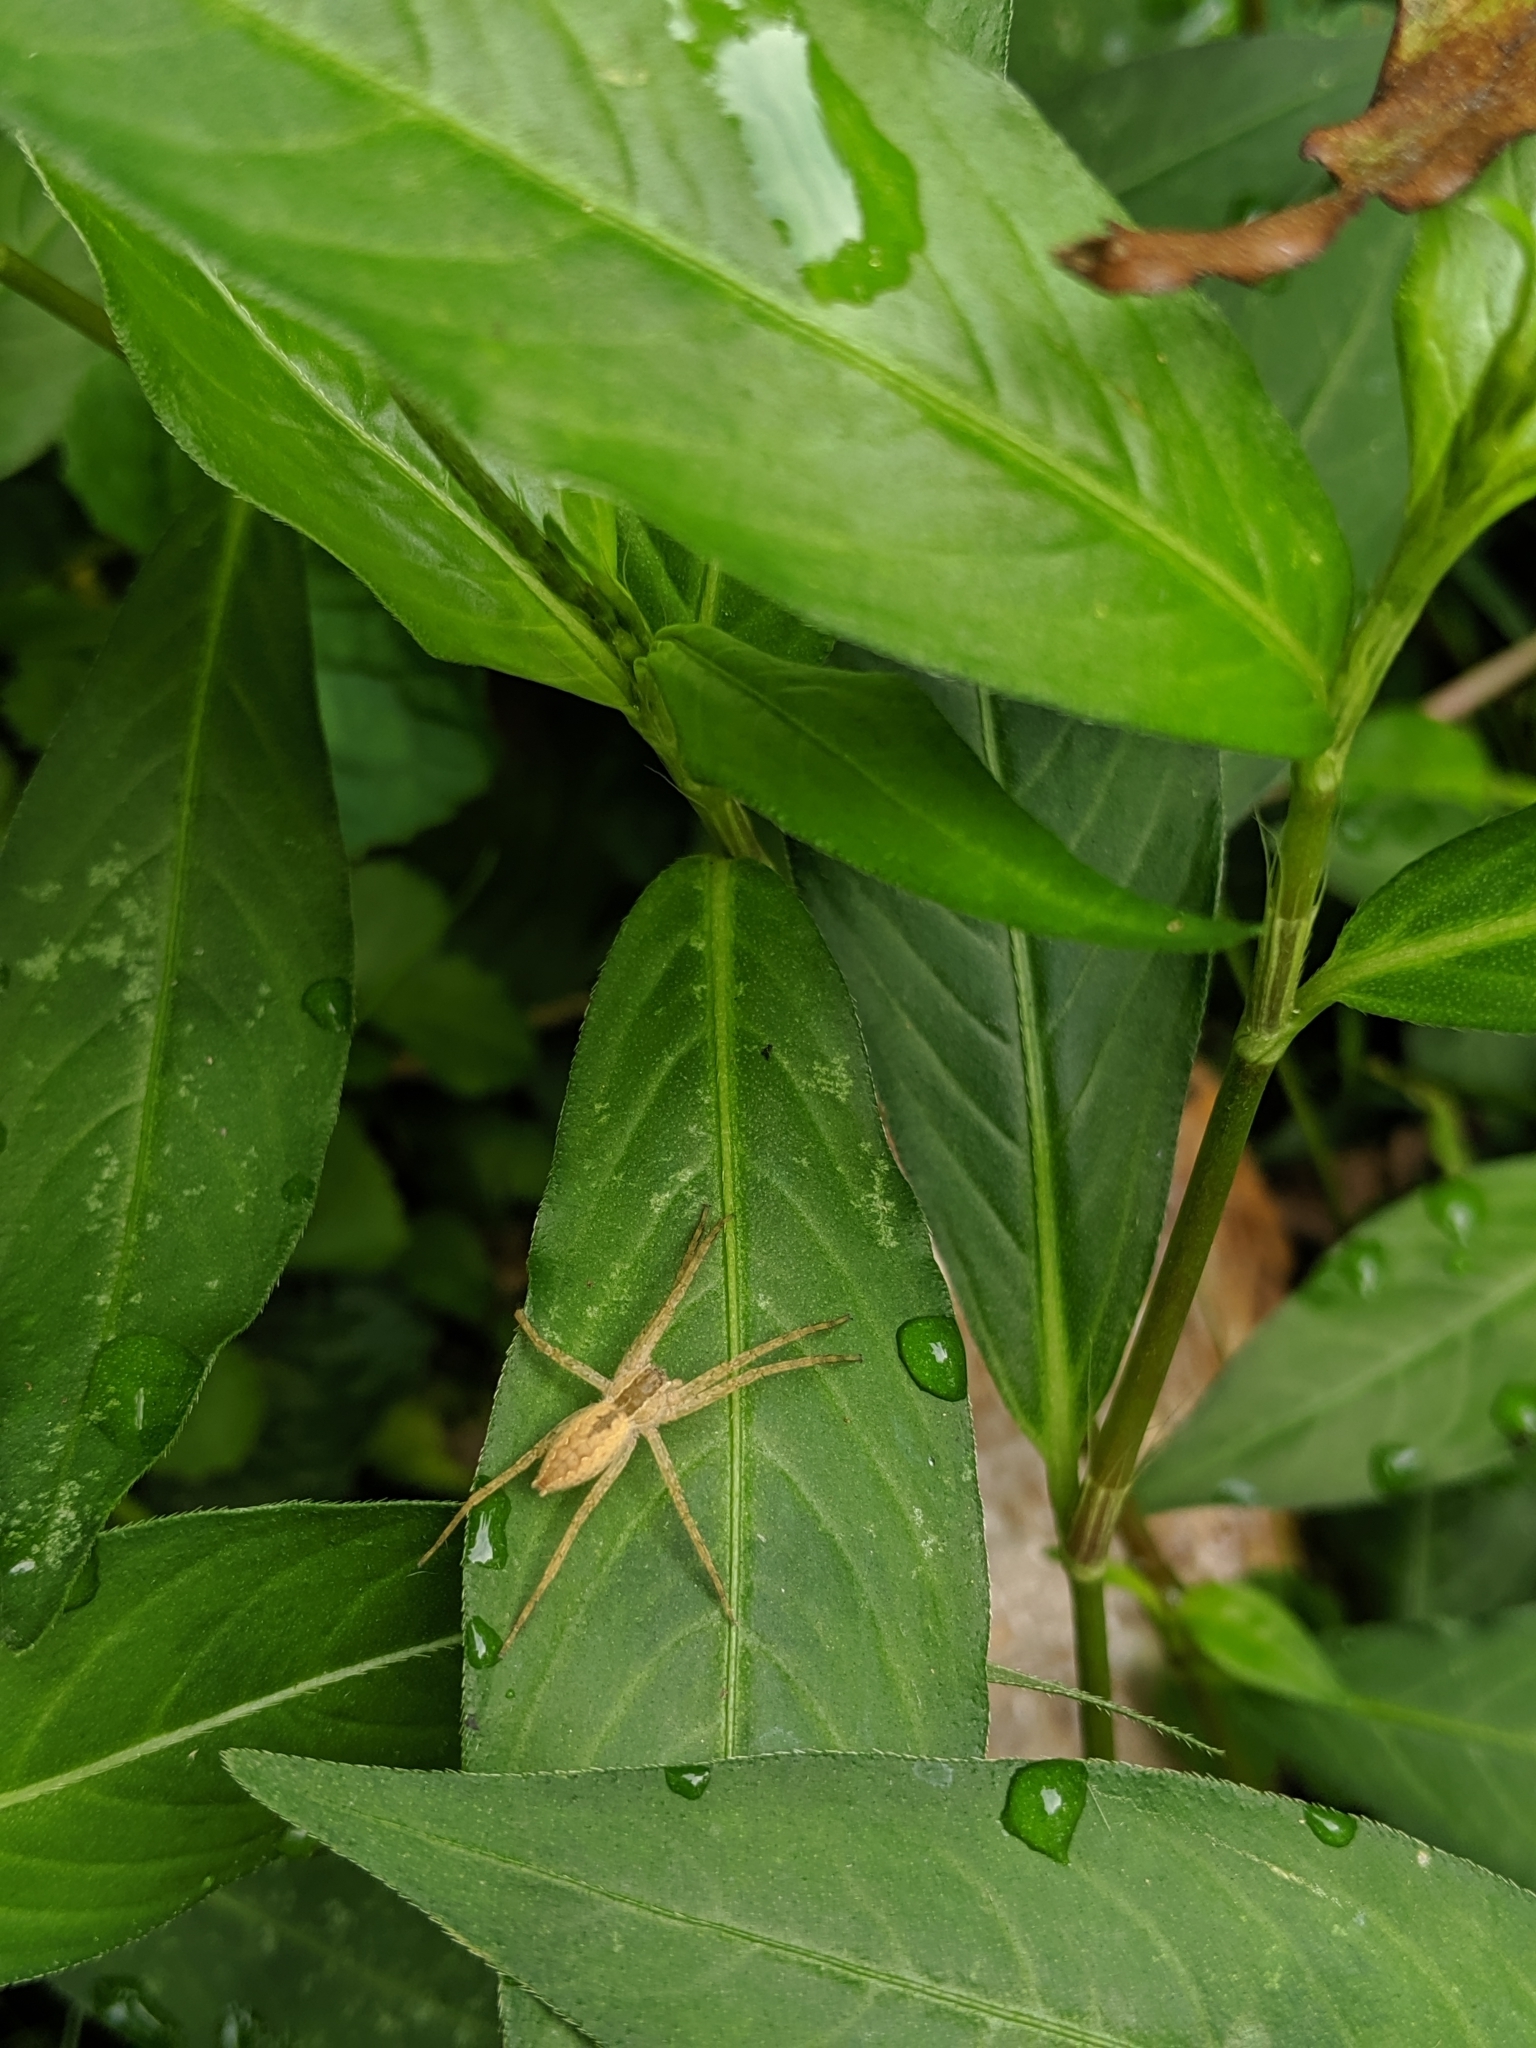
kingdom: Animalia
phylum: Arthropoda
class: Arachnida
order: Araneae
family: Pisauridae
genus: Pisaurina
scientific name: Pisaurina mira
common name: American nursery web spider
